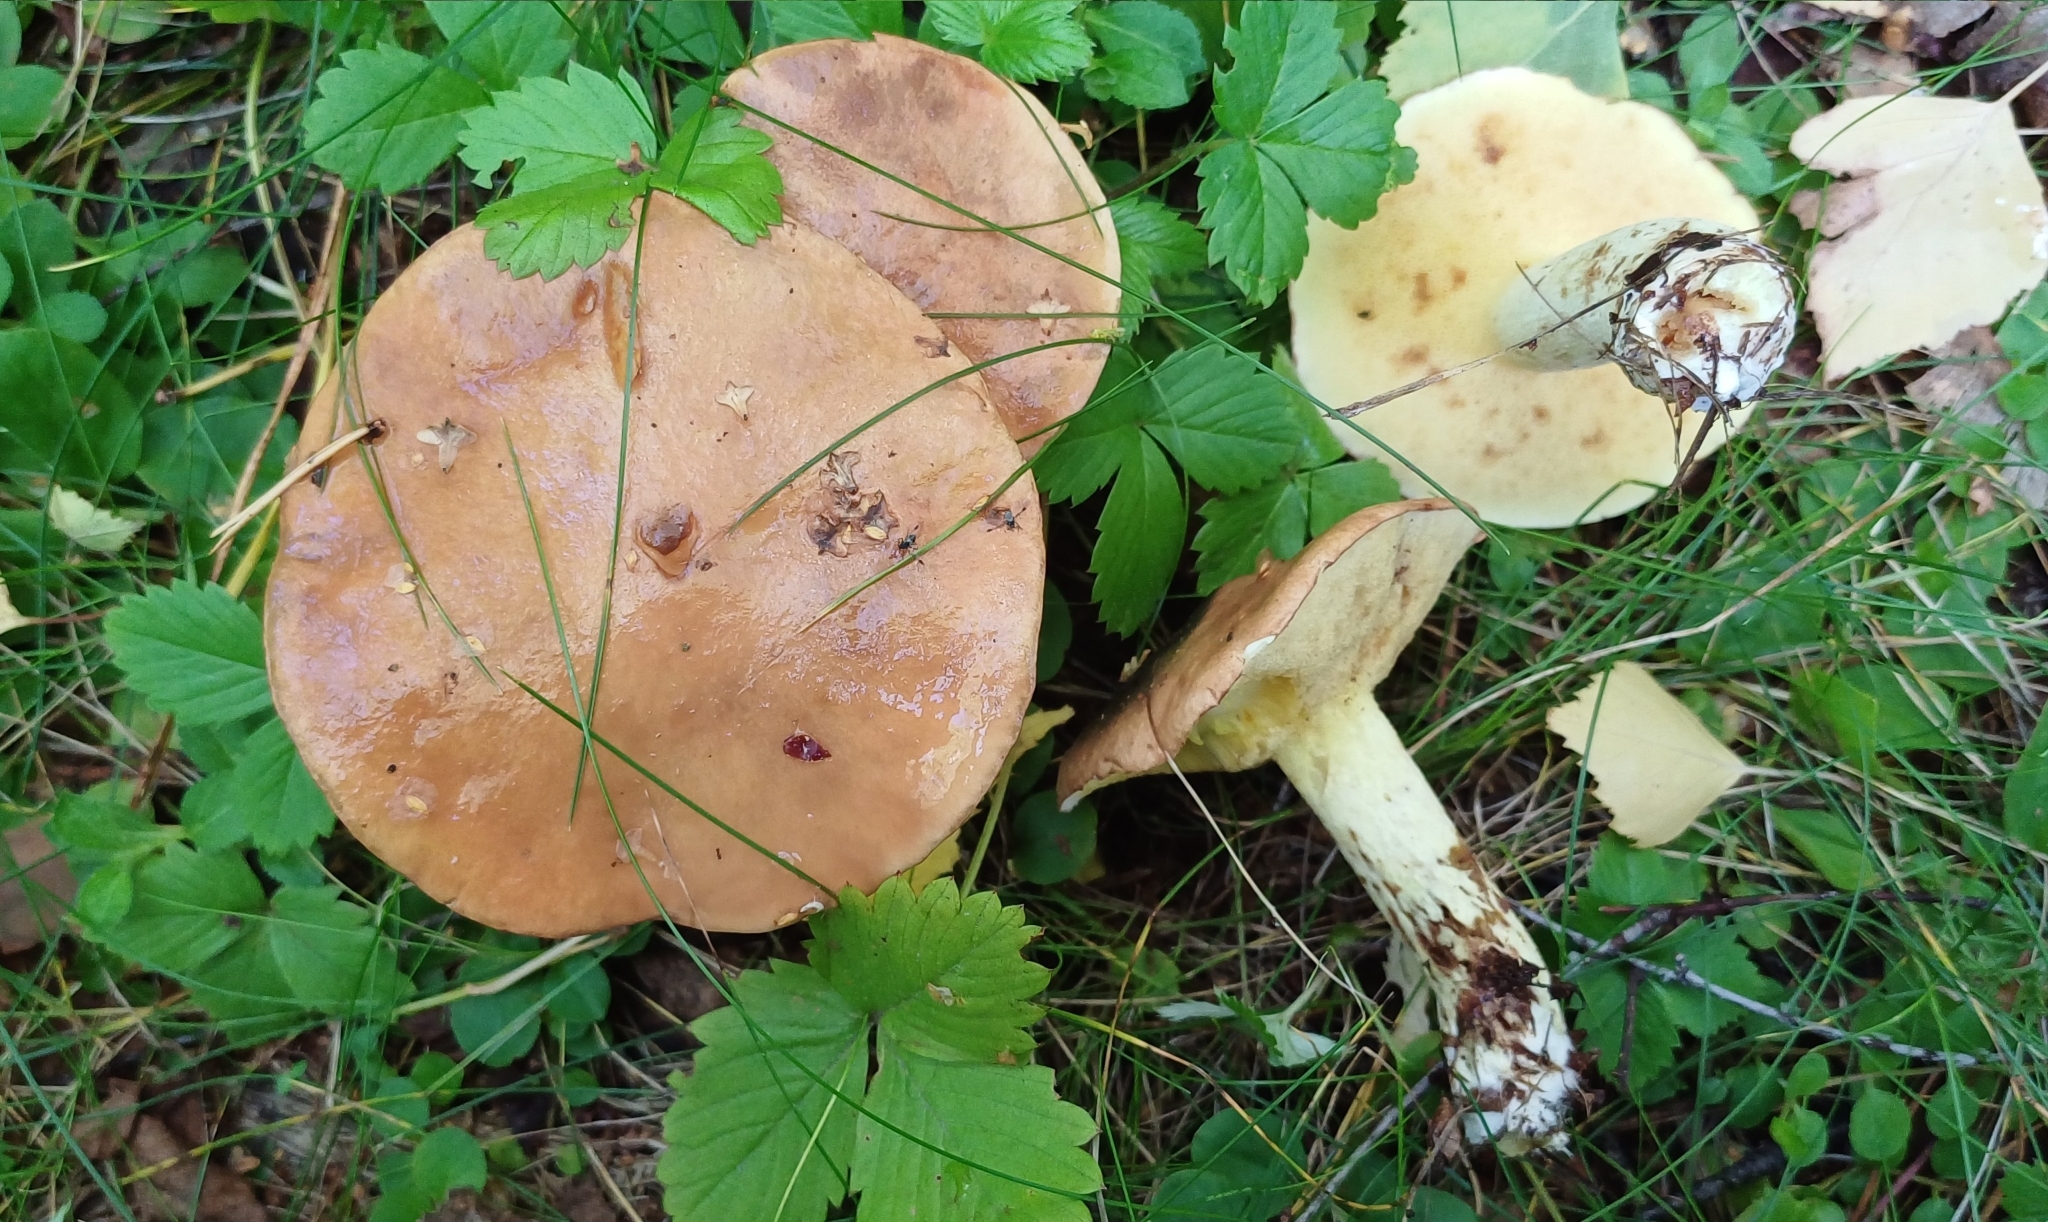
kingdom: Fungi
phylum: Basidiomycota
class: Agaricomycetes
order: Boletales
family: Suillaceae
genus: Suillus
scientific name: Suillus granulatus
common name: Weeping bolete
